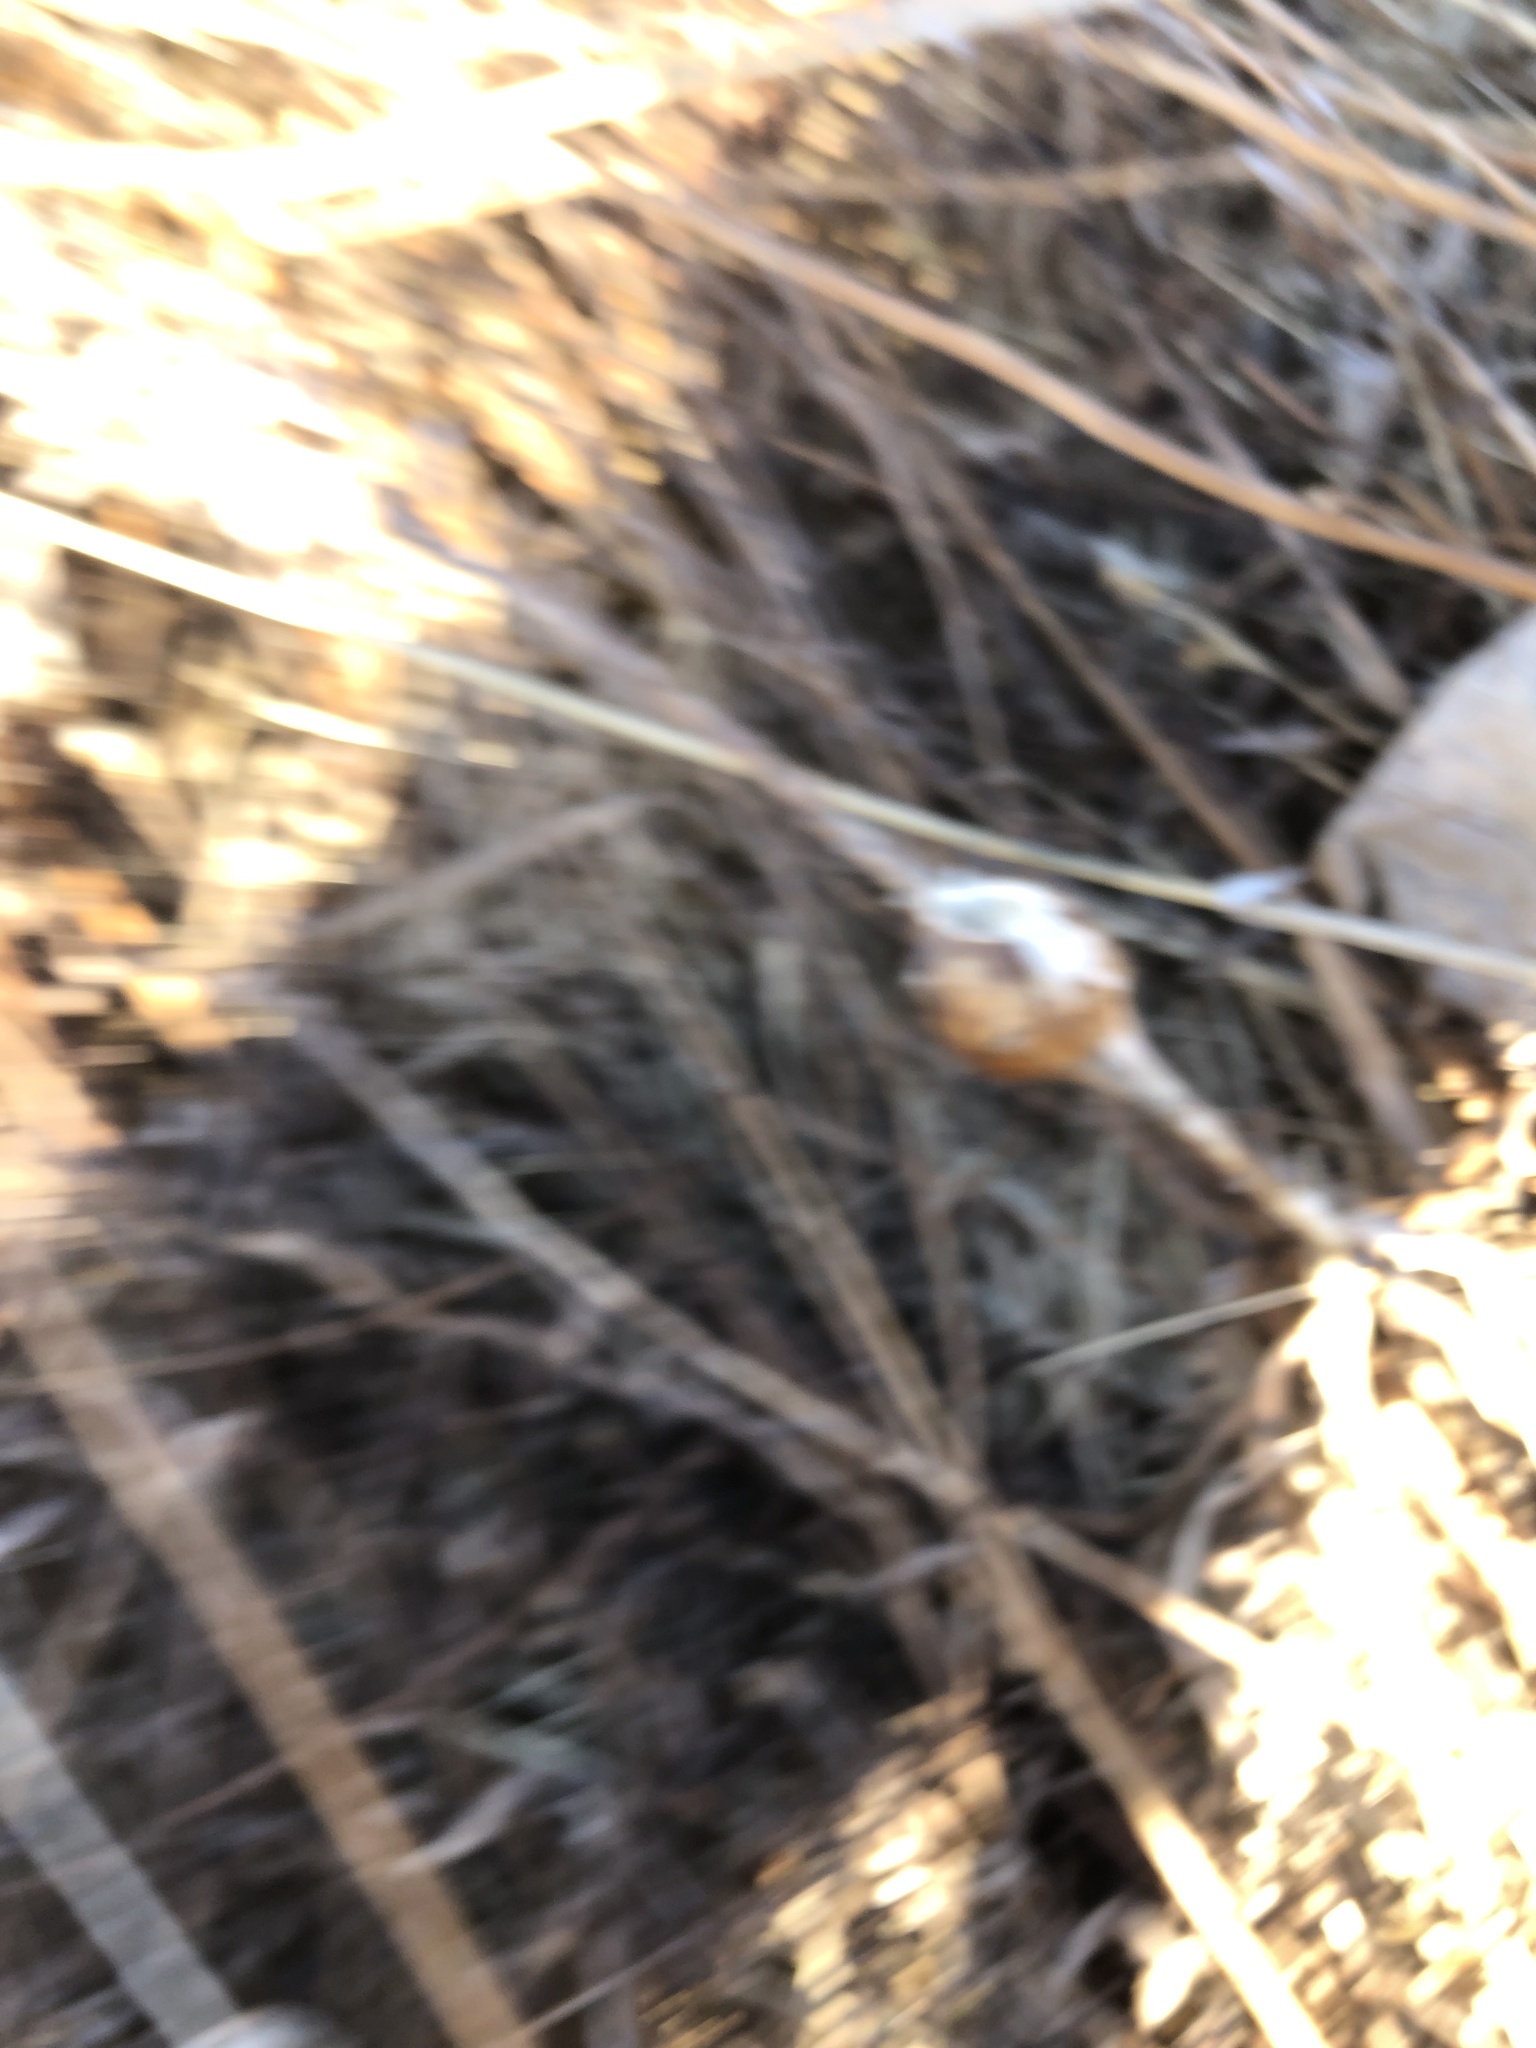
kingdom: Animalia
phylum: Arthropoda
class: Insecta
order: Diptera
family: Tephritidae
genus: Eurosta
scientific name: Eurosta solidaginis
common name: Goldenrod gall fly
